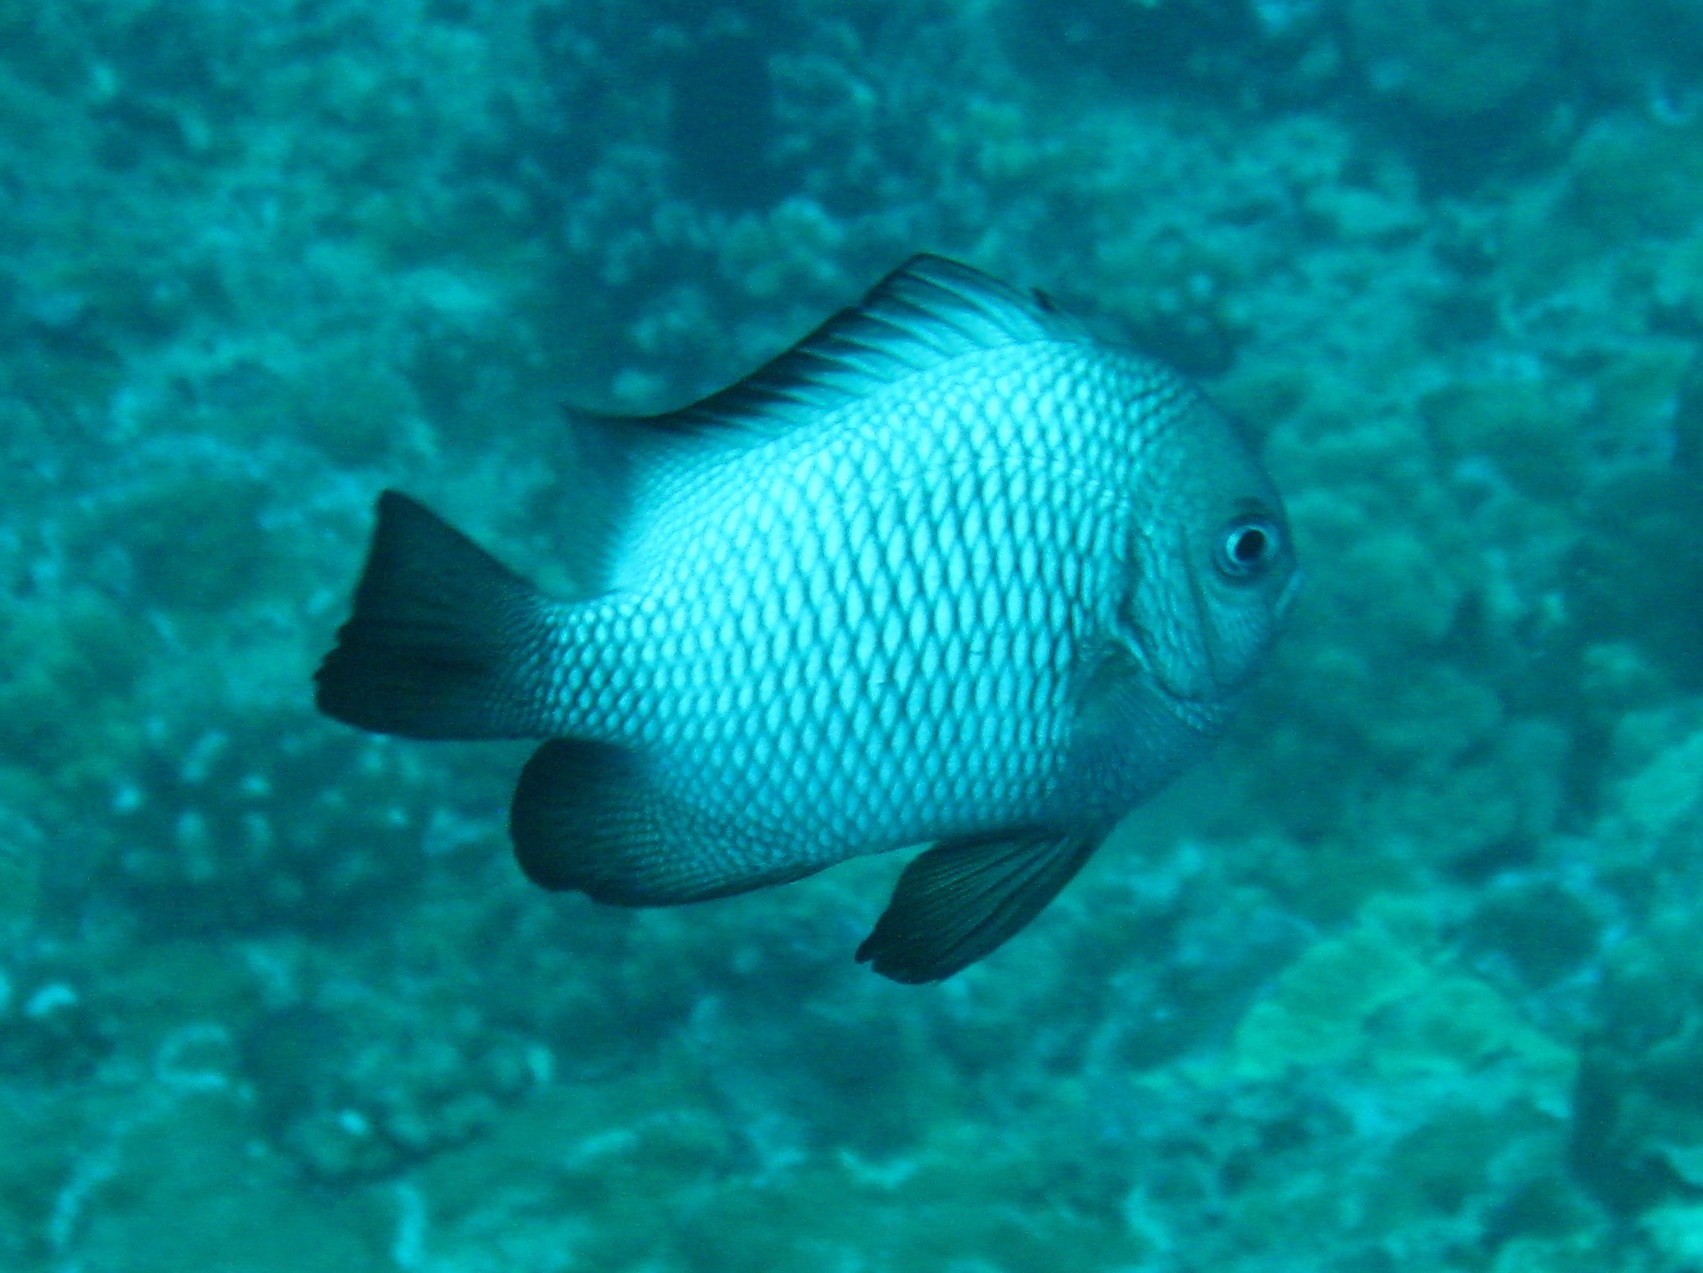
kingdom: Animalia
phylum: Chordata
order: Perciformes
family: Pomacentridae
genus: Dascyllus
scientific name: Dascyllus albisella
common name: Hawaiian dascyllus
